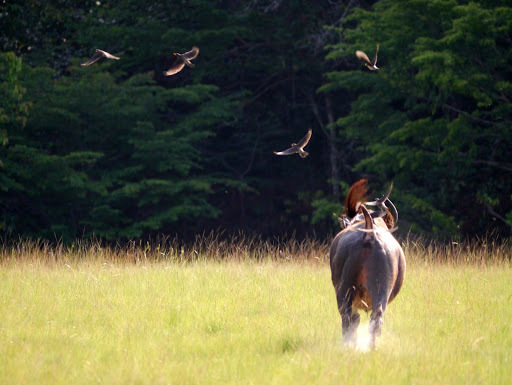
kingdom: Animalia
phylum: Chordata
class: Aves
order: Passeriformes
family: Buphagidae
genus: Buphagus
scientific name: Buphagus africanus
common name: Yellow-billed oxpecker
